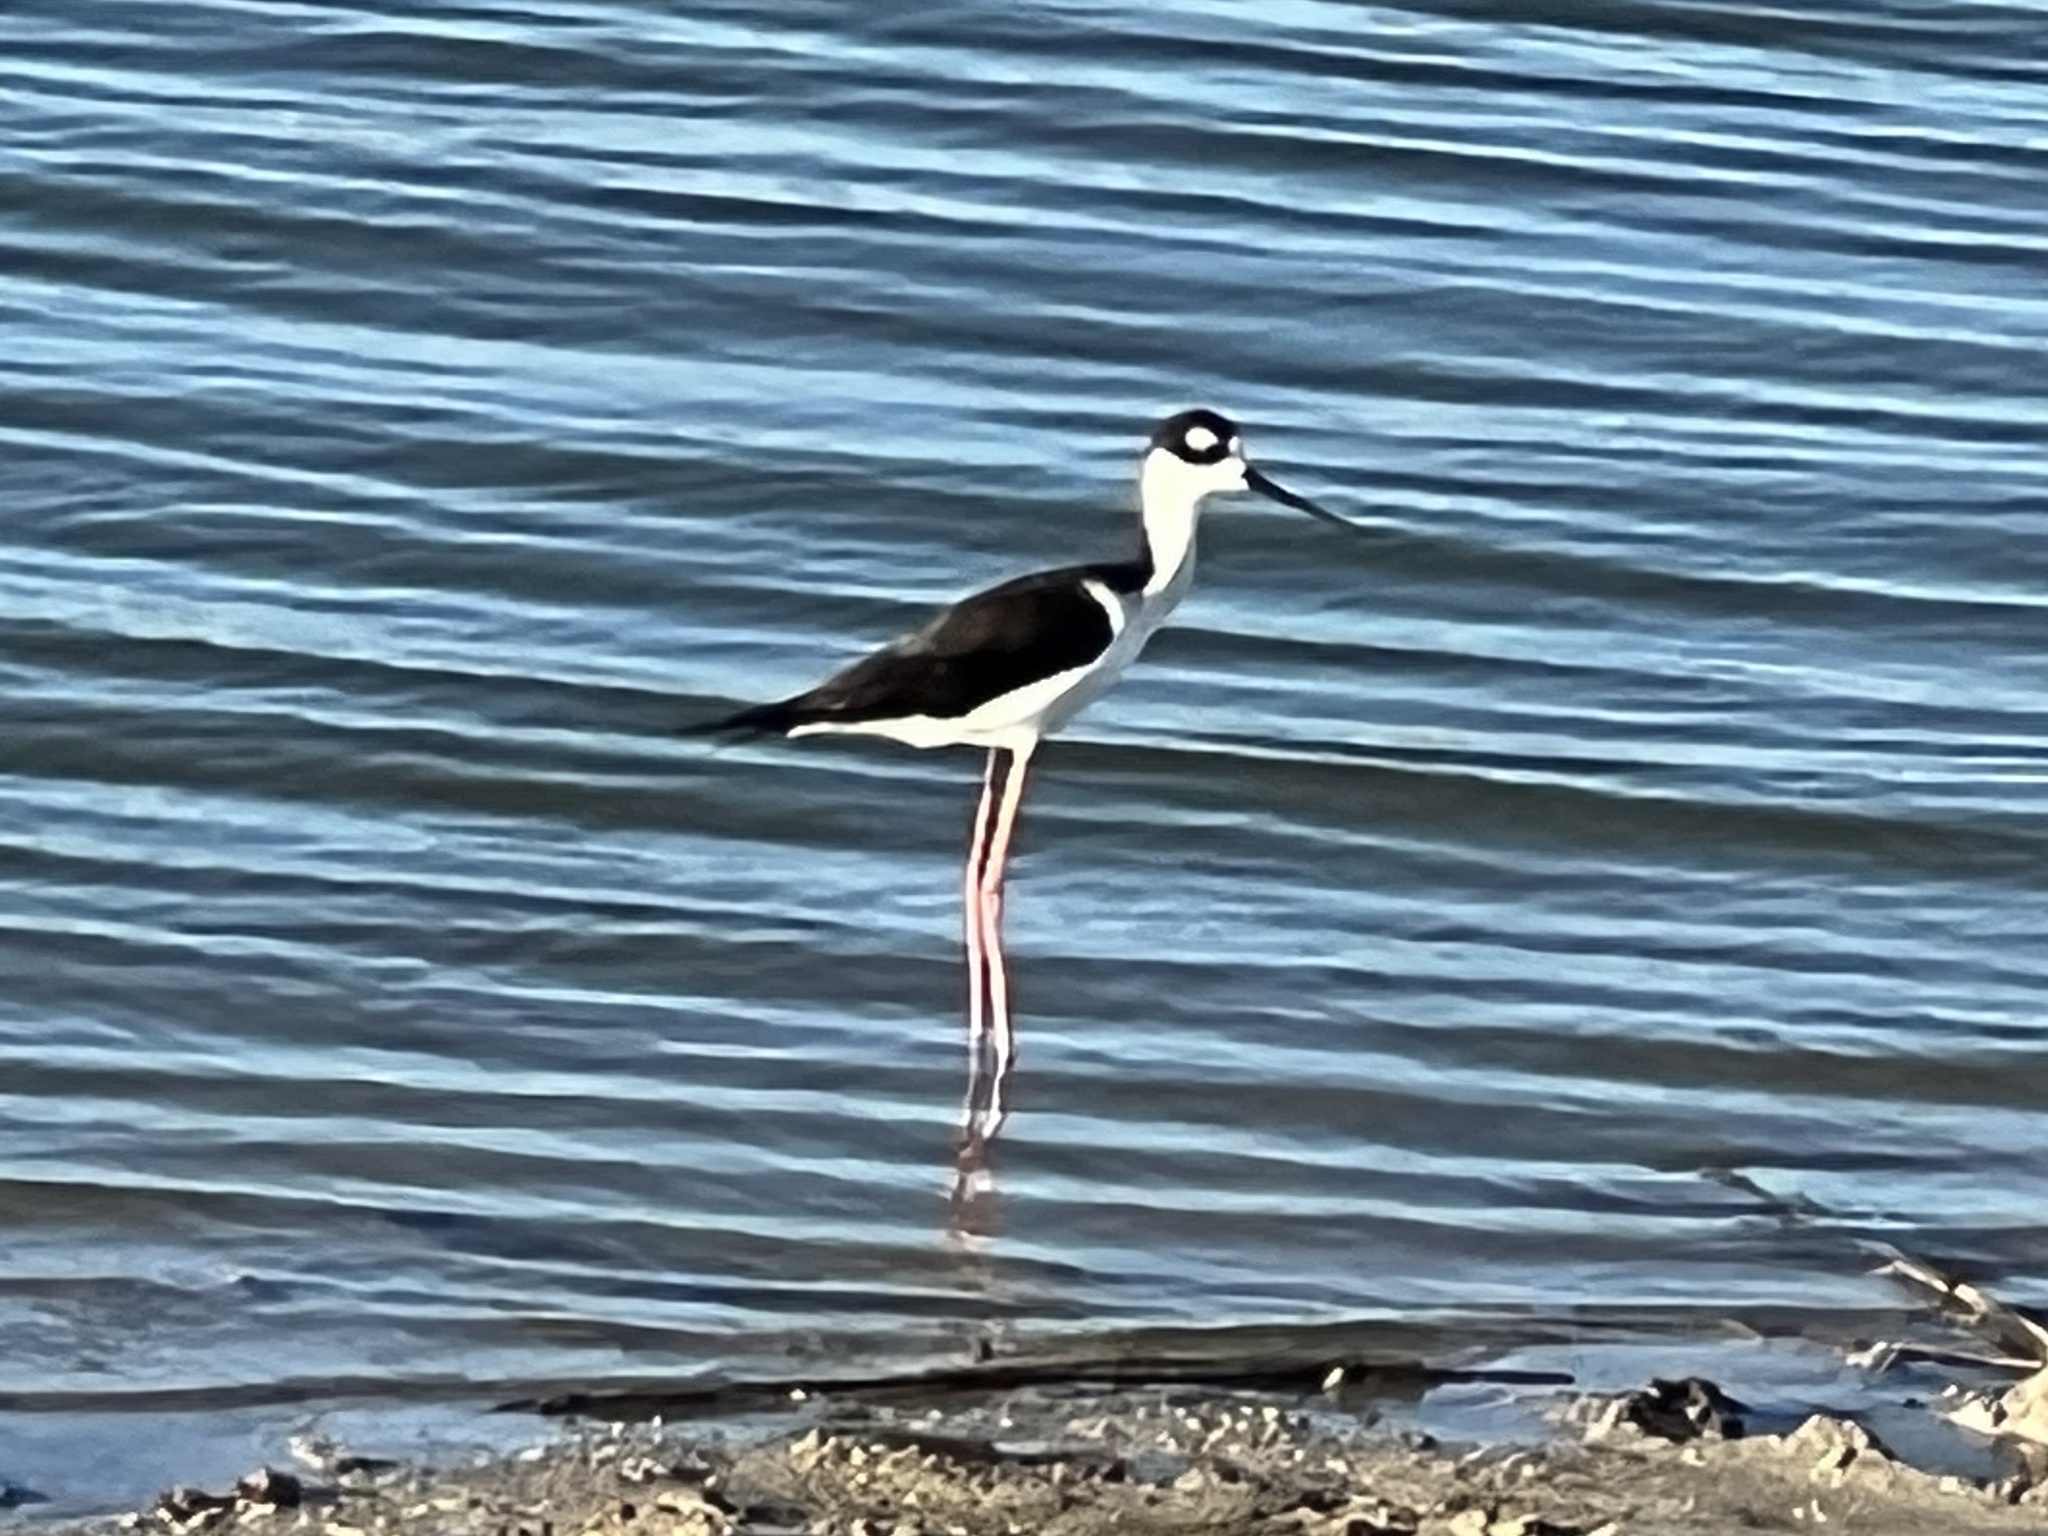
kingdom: Animalia
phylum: Chordata
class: Aves
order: Charadriiformes
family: Recurvirostridae
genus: Himantopus
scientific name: Himantopus mexicanus
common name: Black-necked stilt
